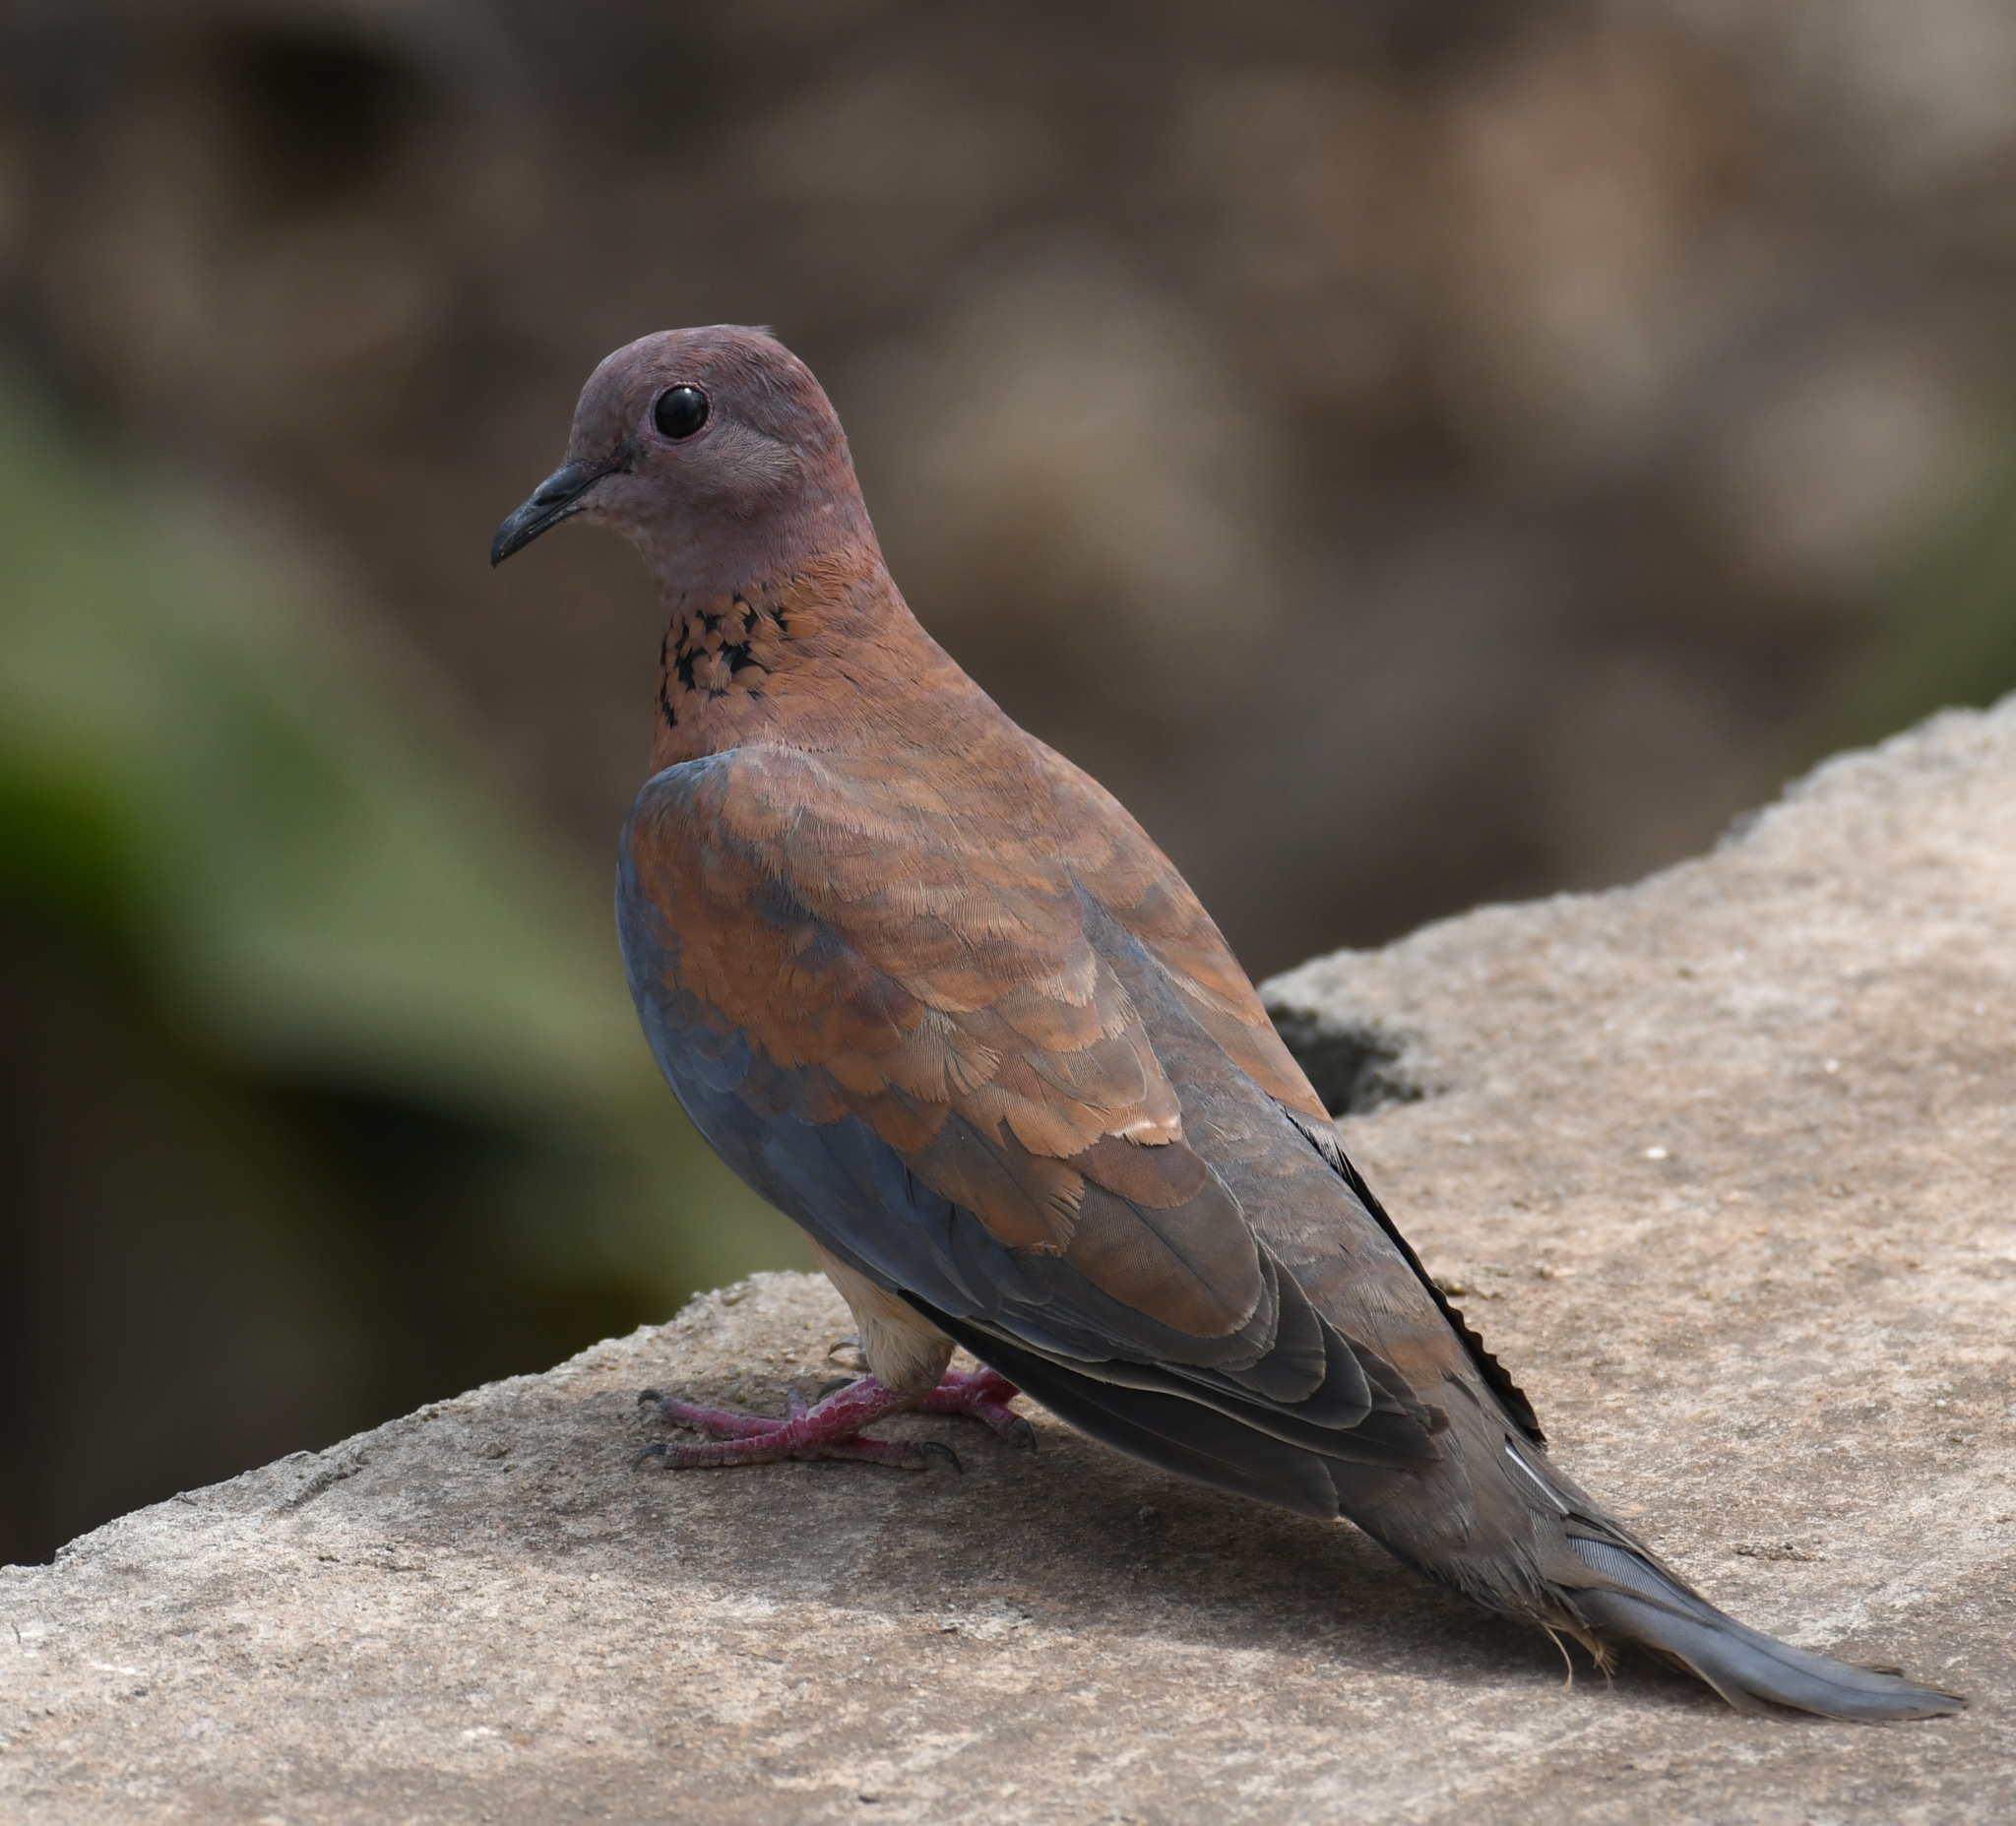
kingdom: Animalia
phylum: Chordata
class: Aves
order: Columbiformes
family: Columbidae
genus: Spilopelia
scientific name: Spilopelia senegalensis
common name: Laughing dove
